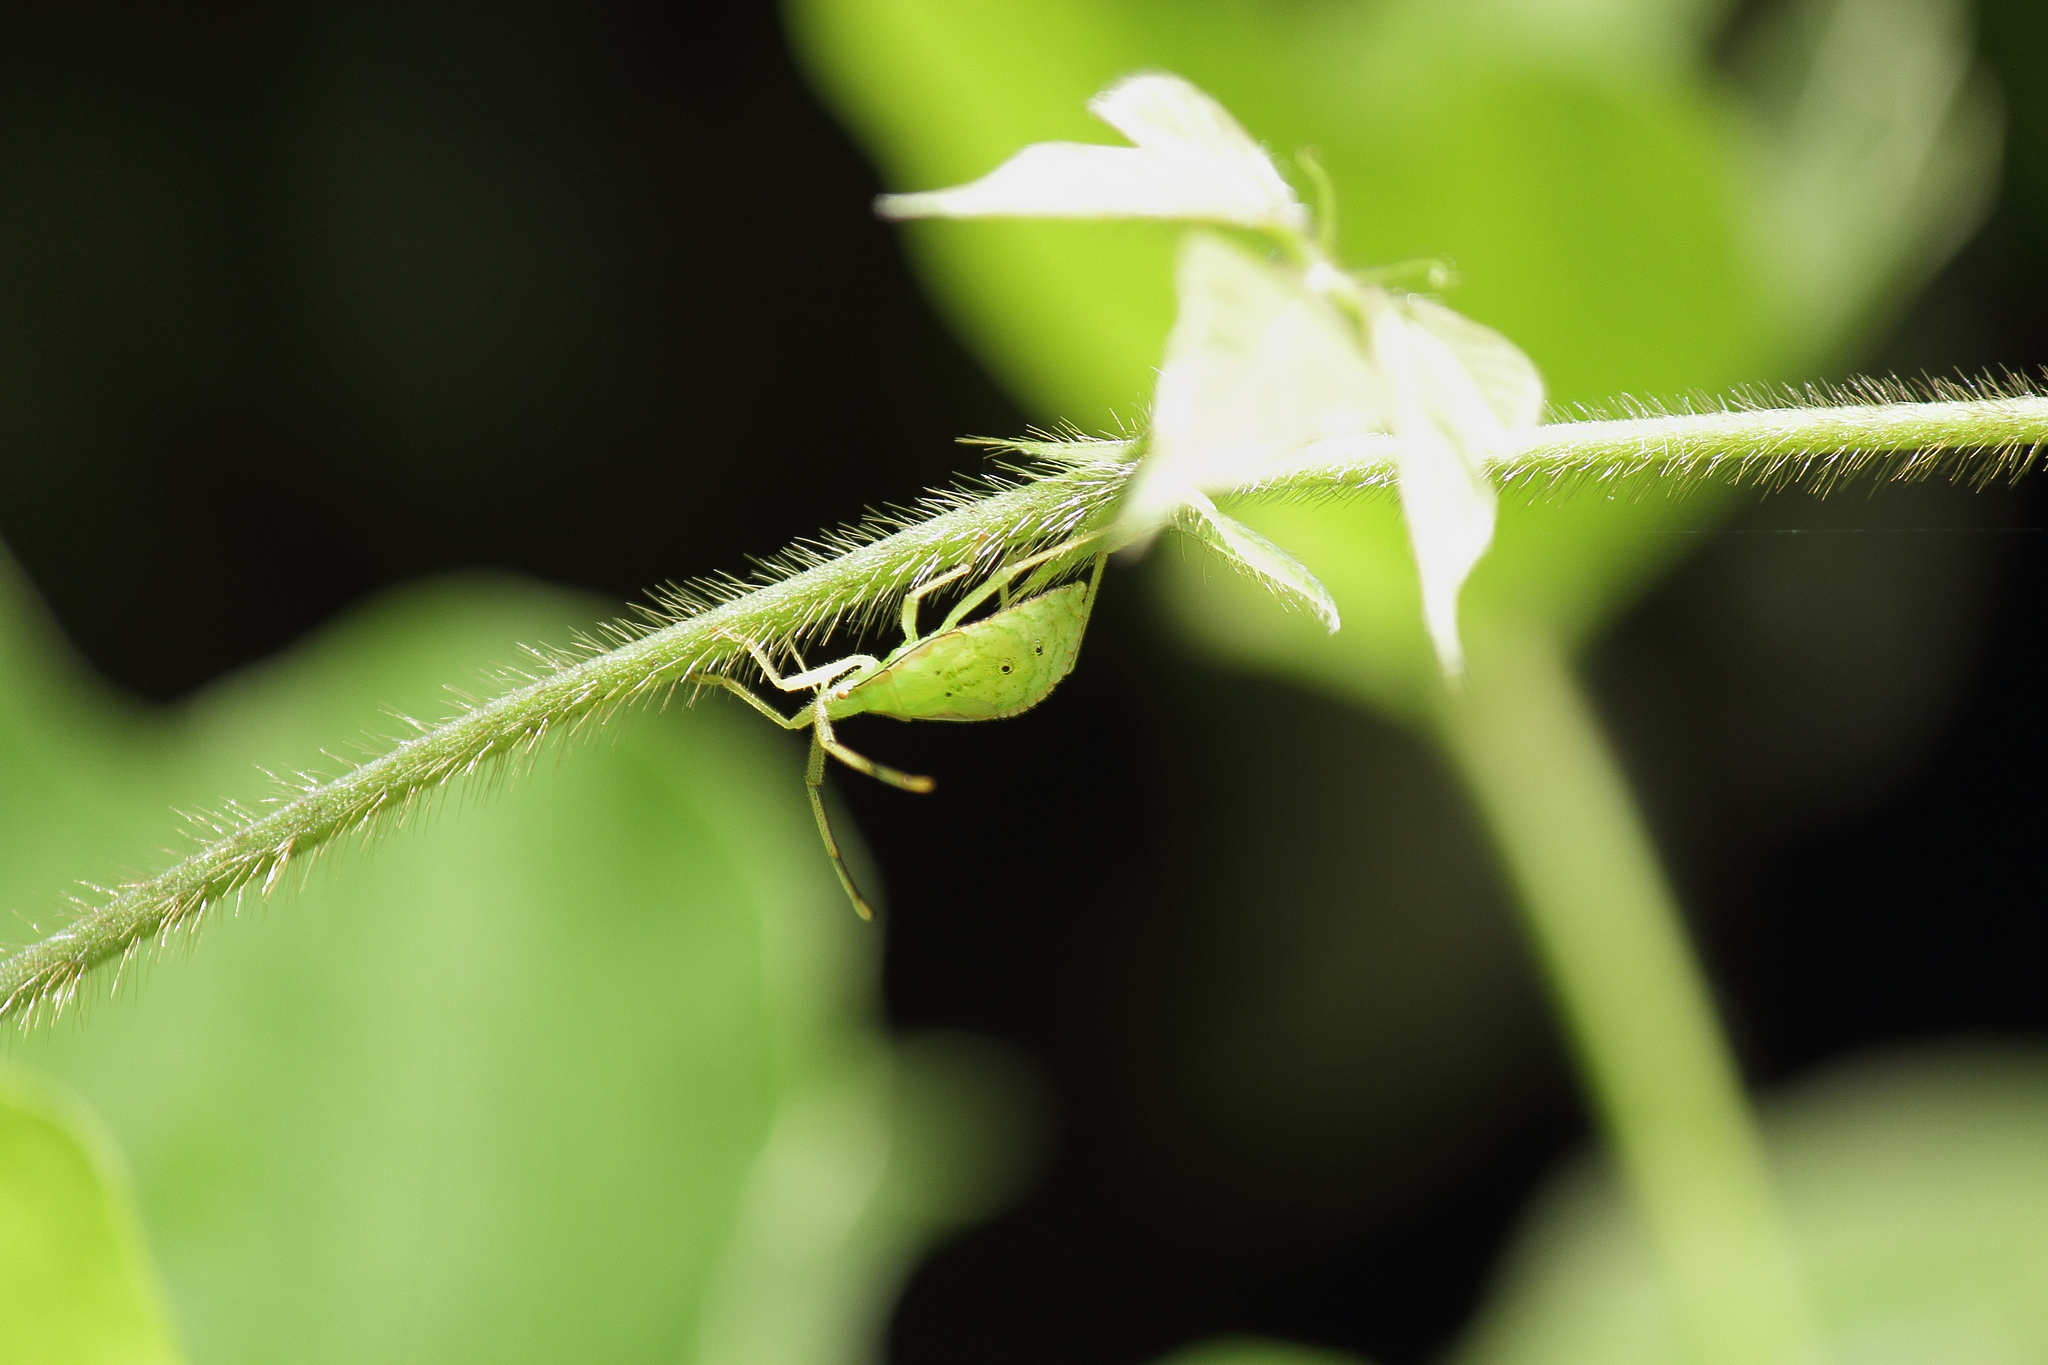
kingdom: Animalia
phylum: Arthropoda
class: Insecta
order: Hemiptera
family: Coreidae
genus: Homoeocerus
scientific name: Homoeocerus unipunctatus
